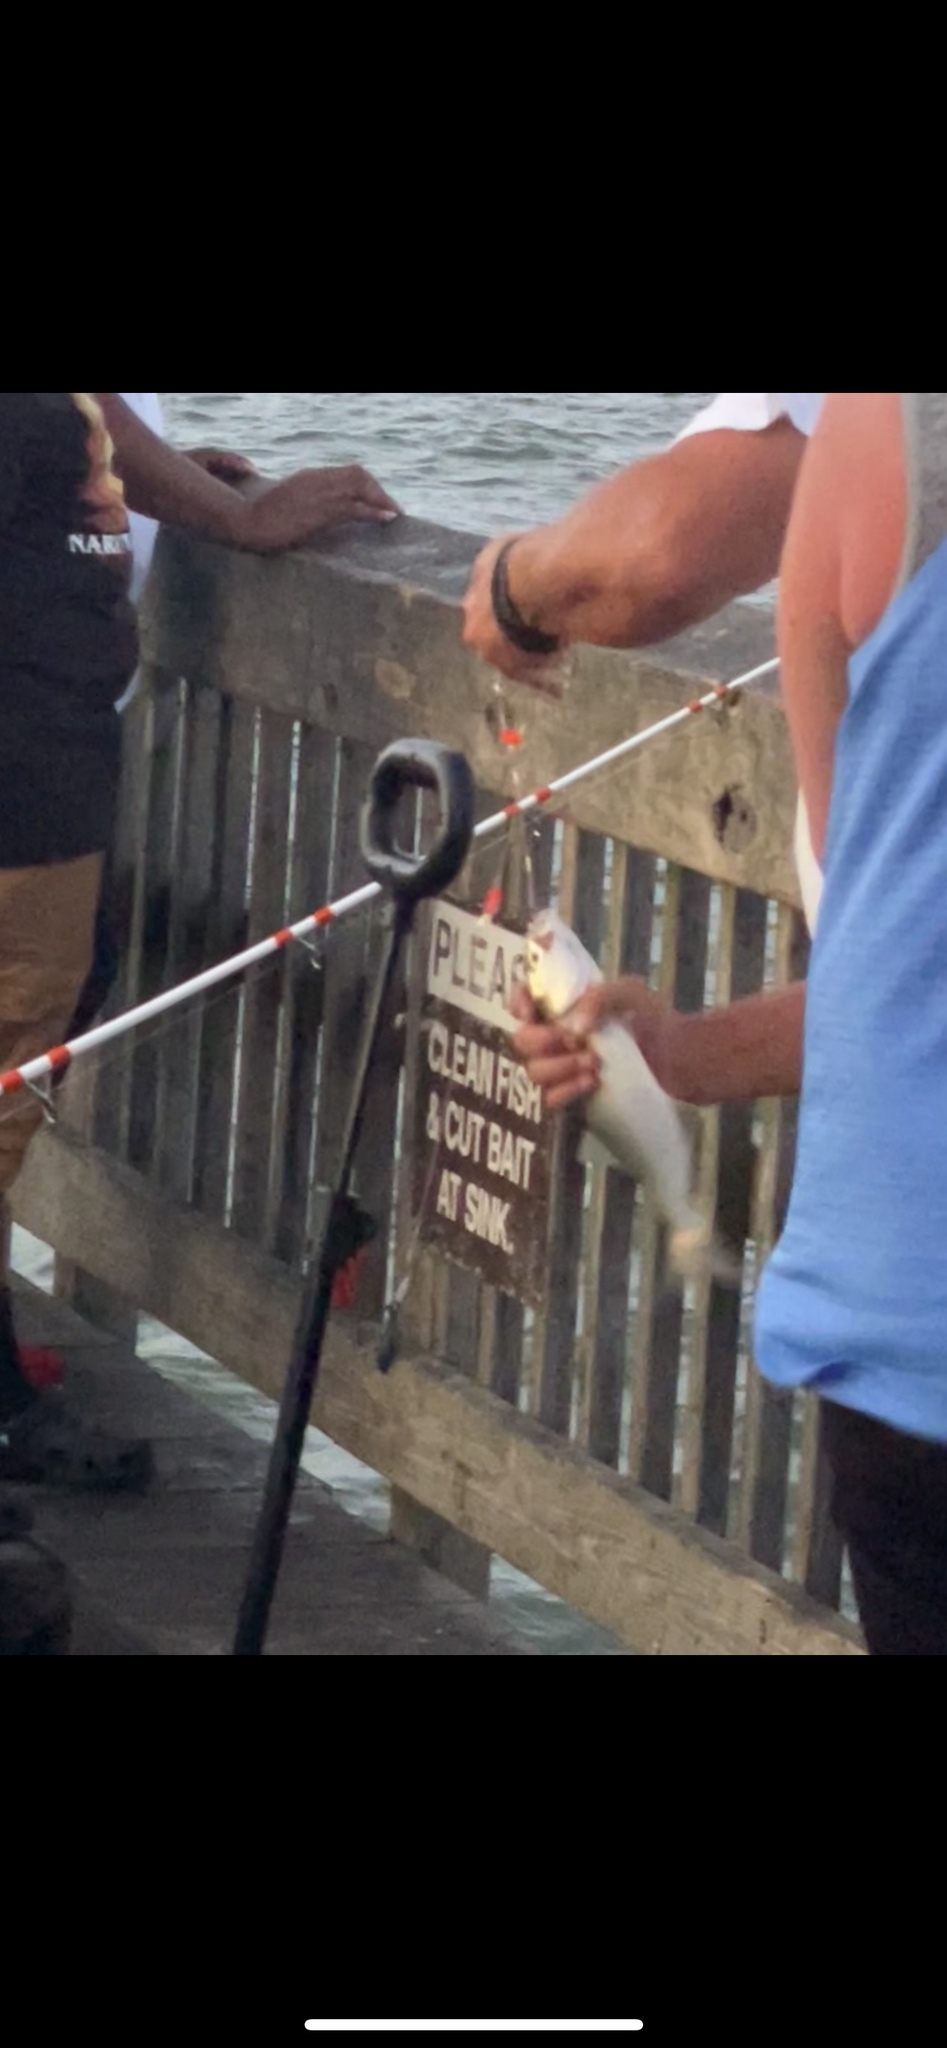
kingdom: Animalia
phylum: Chordata
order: Perciformes
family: Pomatomidae
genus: Pomatomus
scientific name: Pomatomus saltatrix
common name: Bluefish
